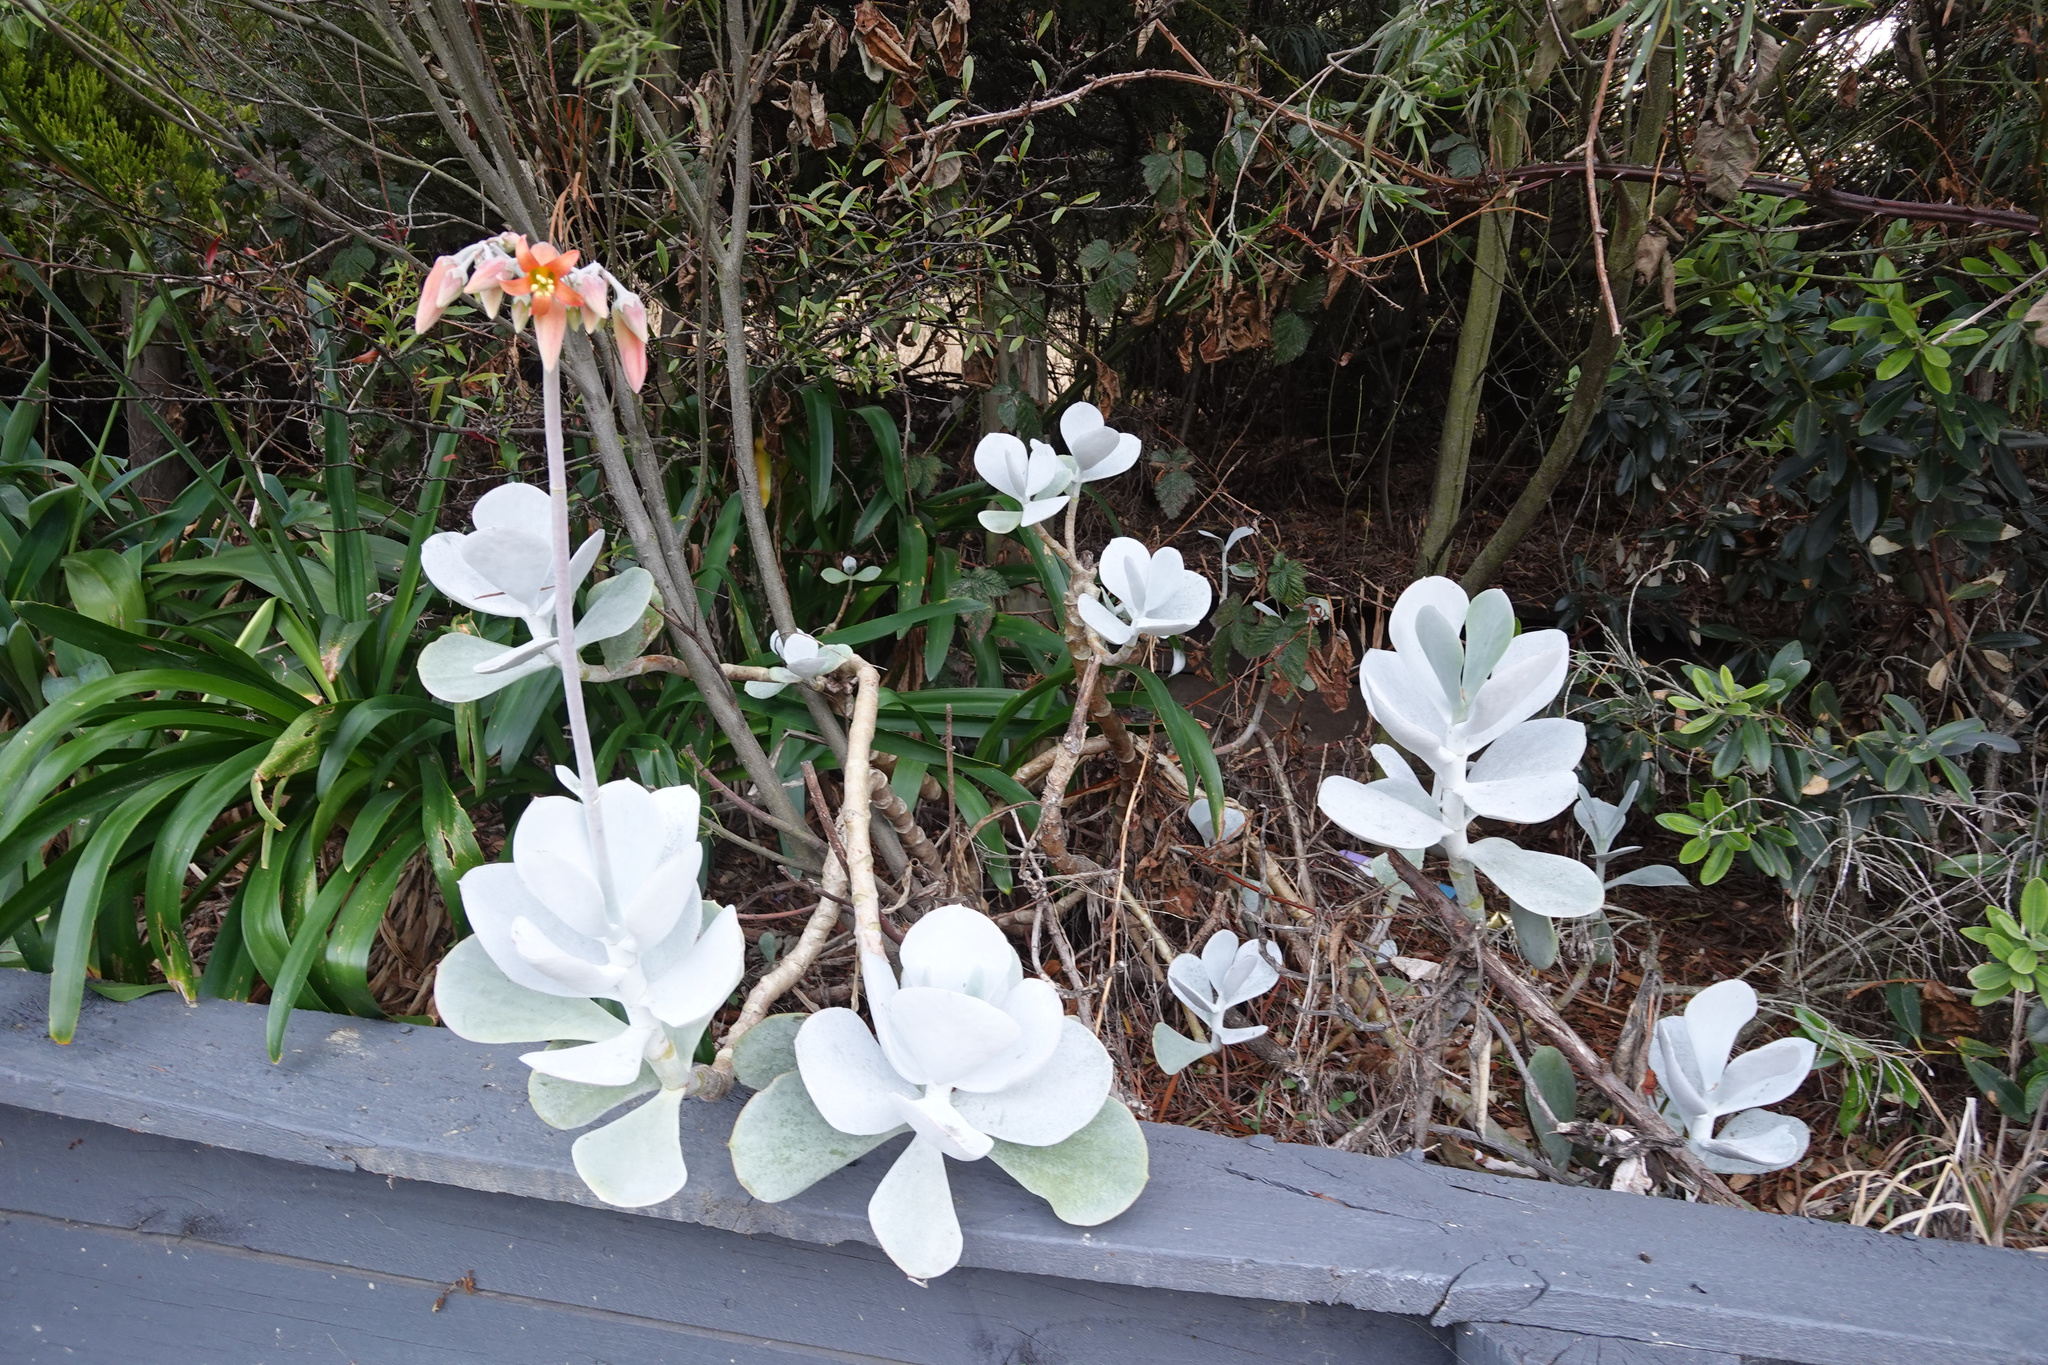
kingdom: Plantae
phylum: Tracheophyta
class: Magnoliopsida
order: Saxifragales
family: Crassulaceae
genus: Cotyledon
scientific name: Cotyledon orbiculata
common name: Pig's ear
